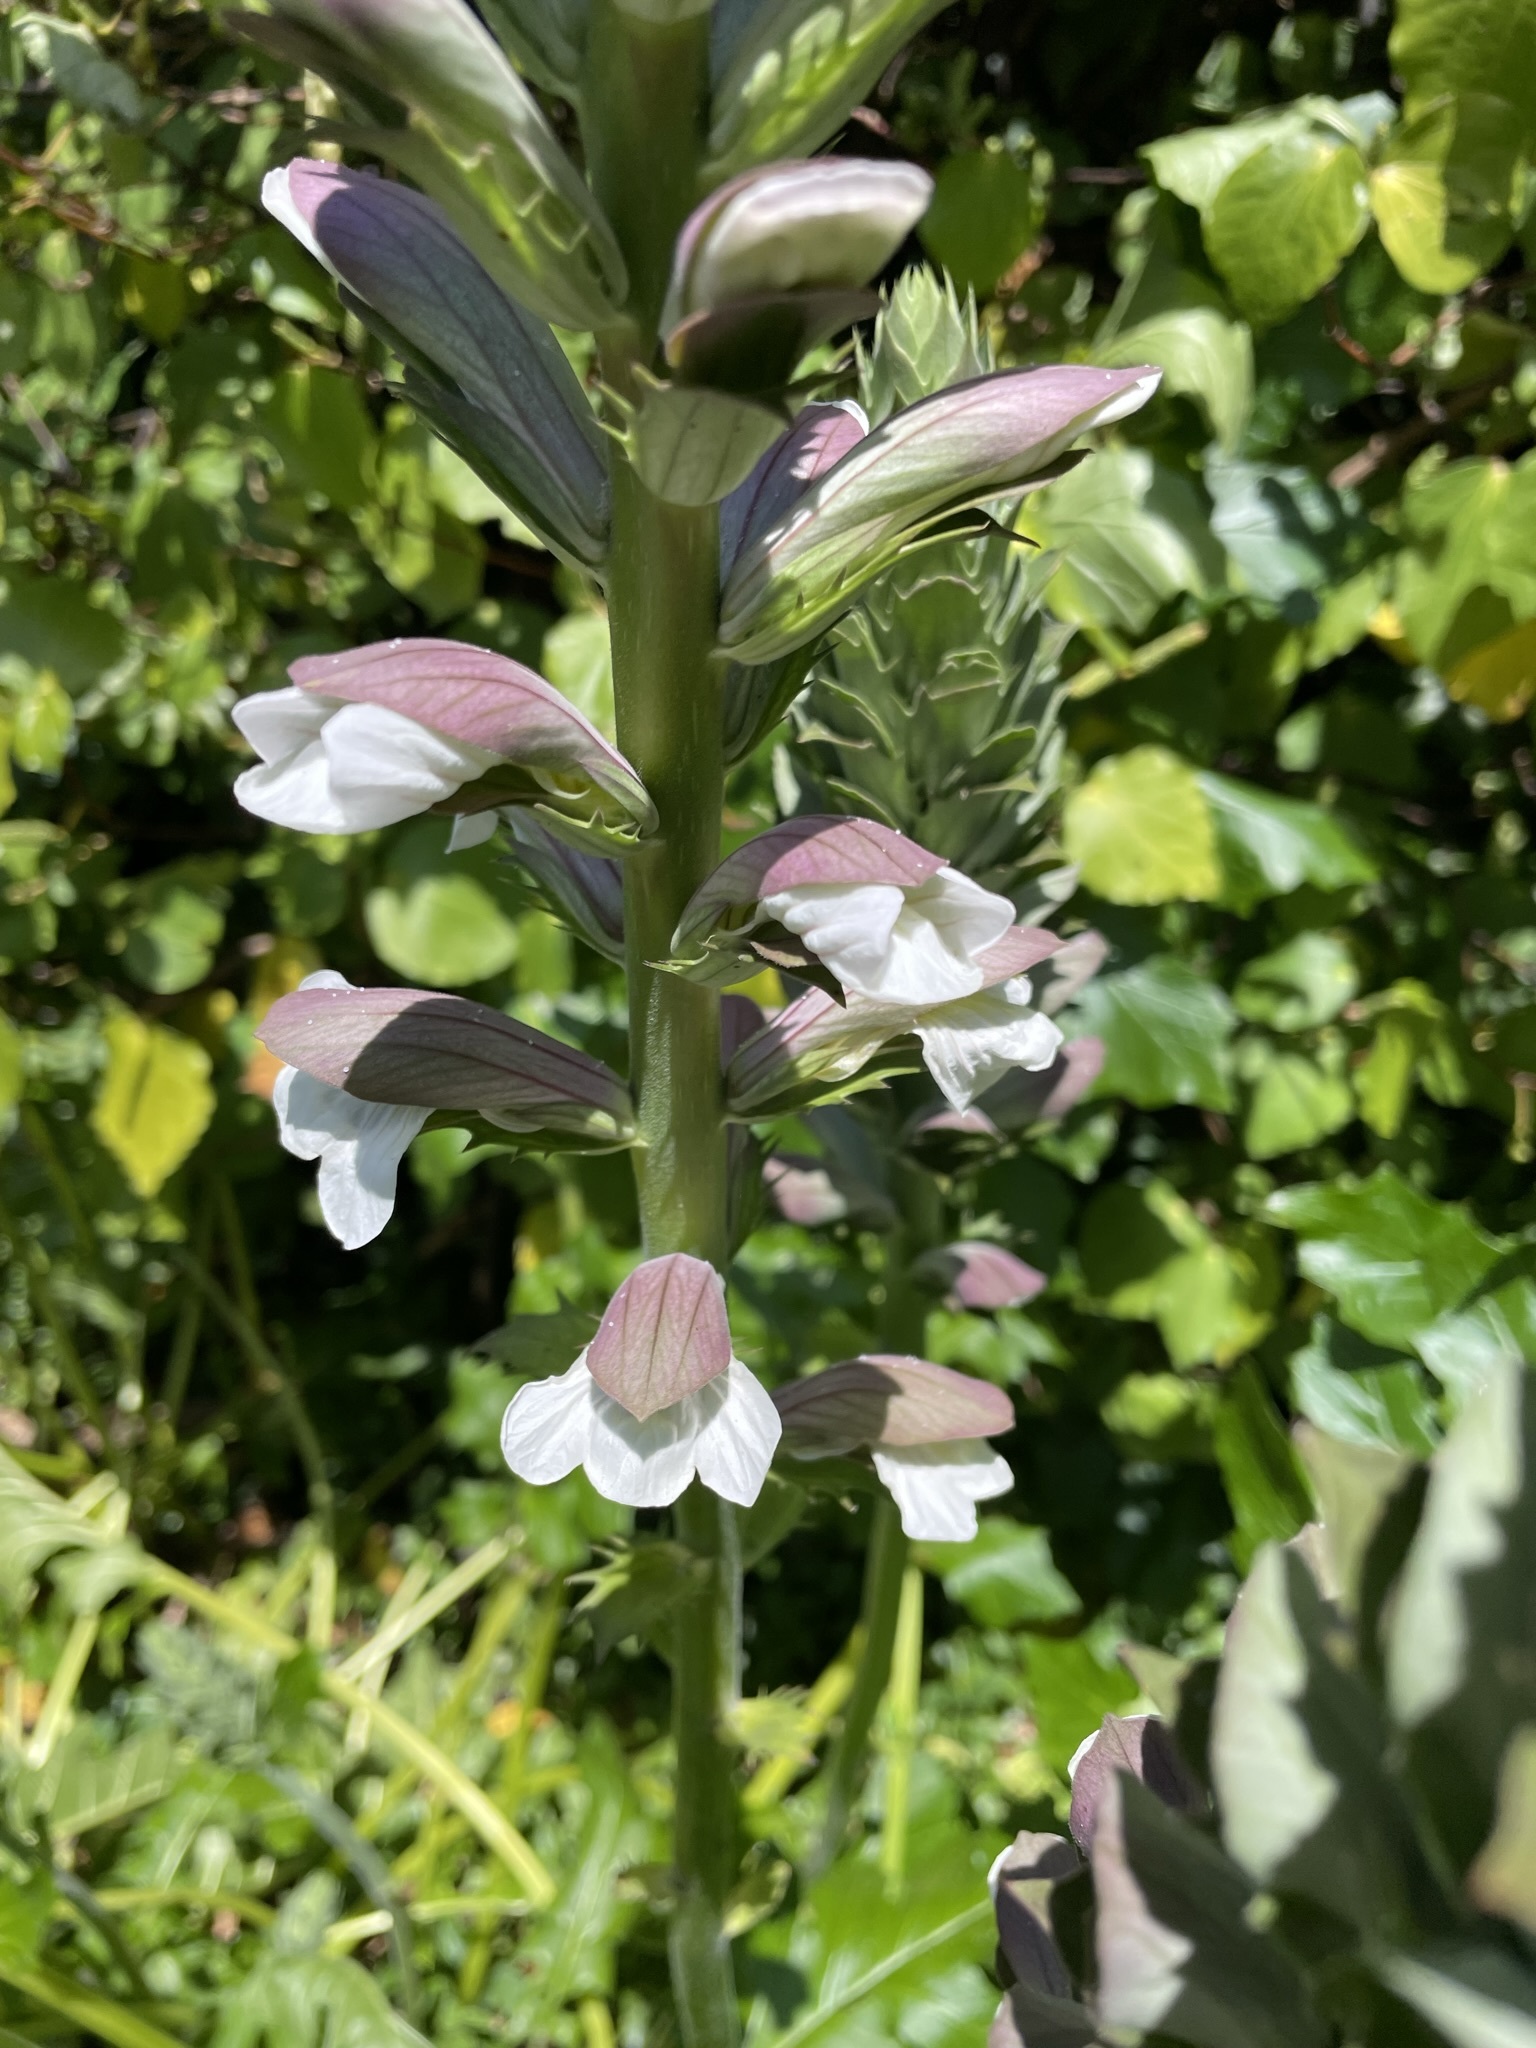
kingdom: Plantae
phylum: Tracheophyta
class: Magnoliopsida
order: Lamiales
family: Acanthaceae
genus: Acanthus
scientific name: Acanthus mollis
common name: Bear's-breech
